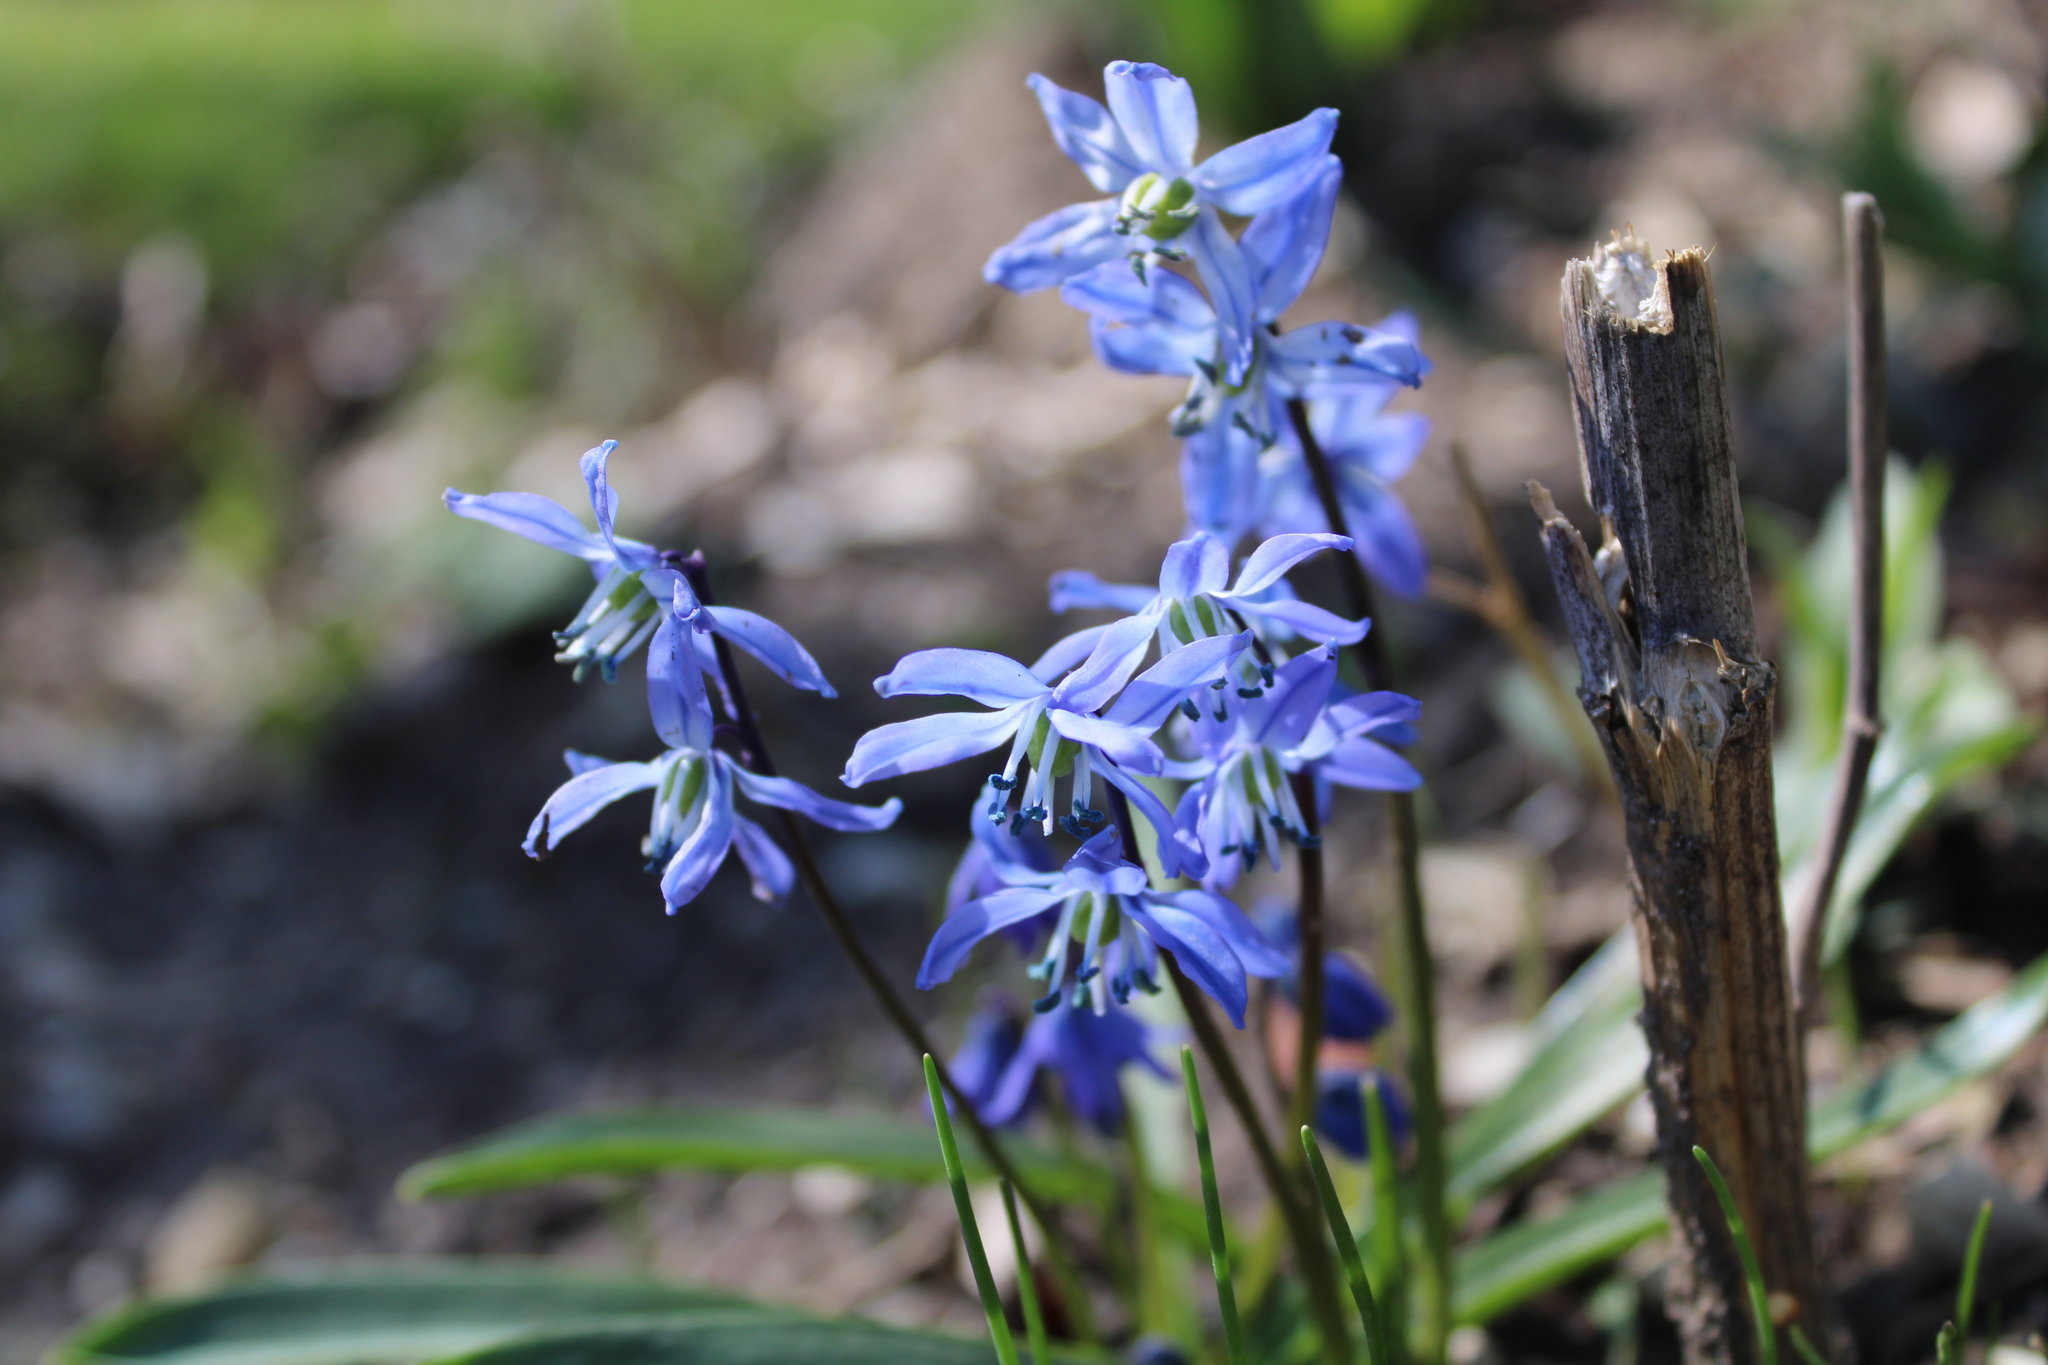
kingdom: Plantae
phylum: Tracheophyta
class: Liliopsida
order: Asparagales
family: Asparagaceae
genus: Scilla
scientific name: Scilla siberica
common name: Siberian squill
